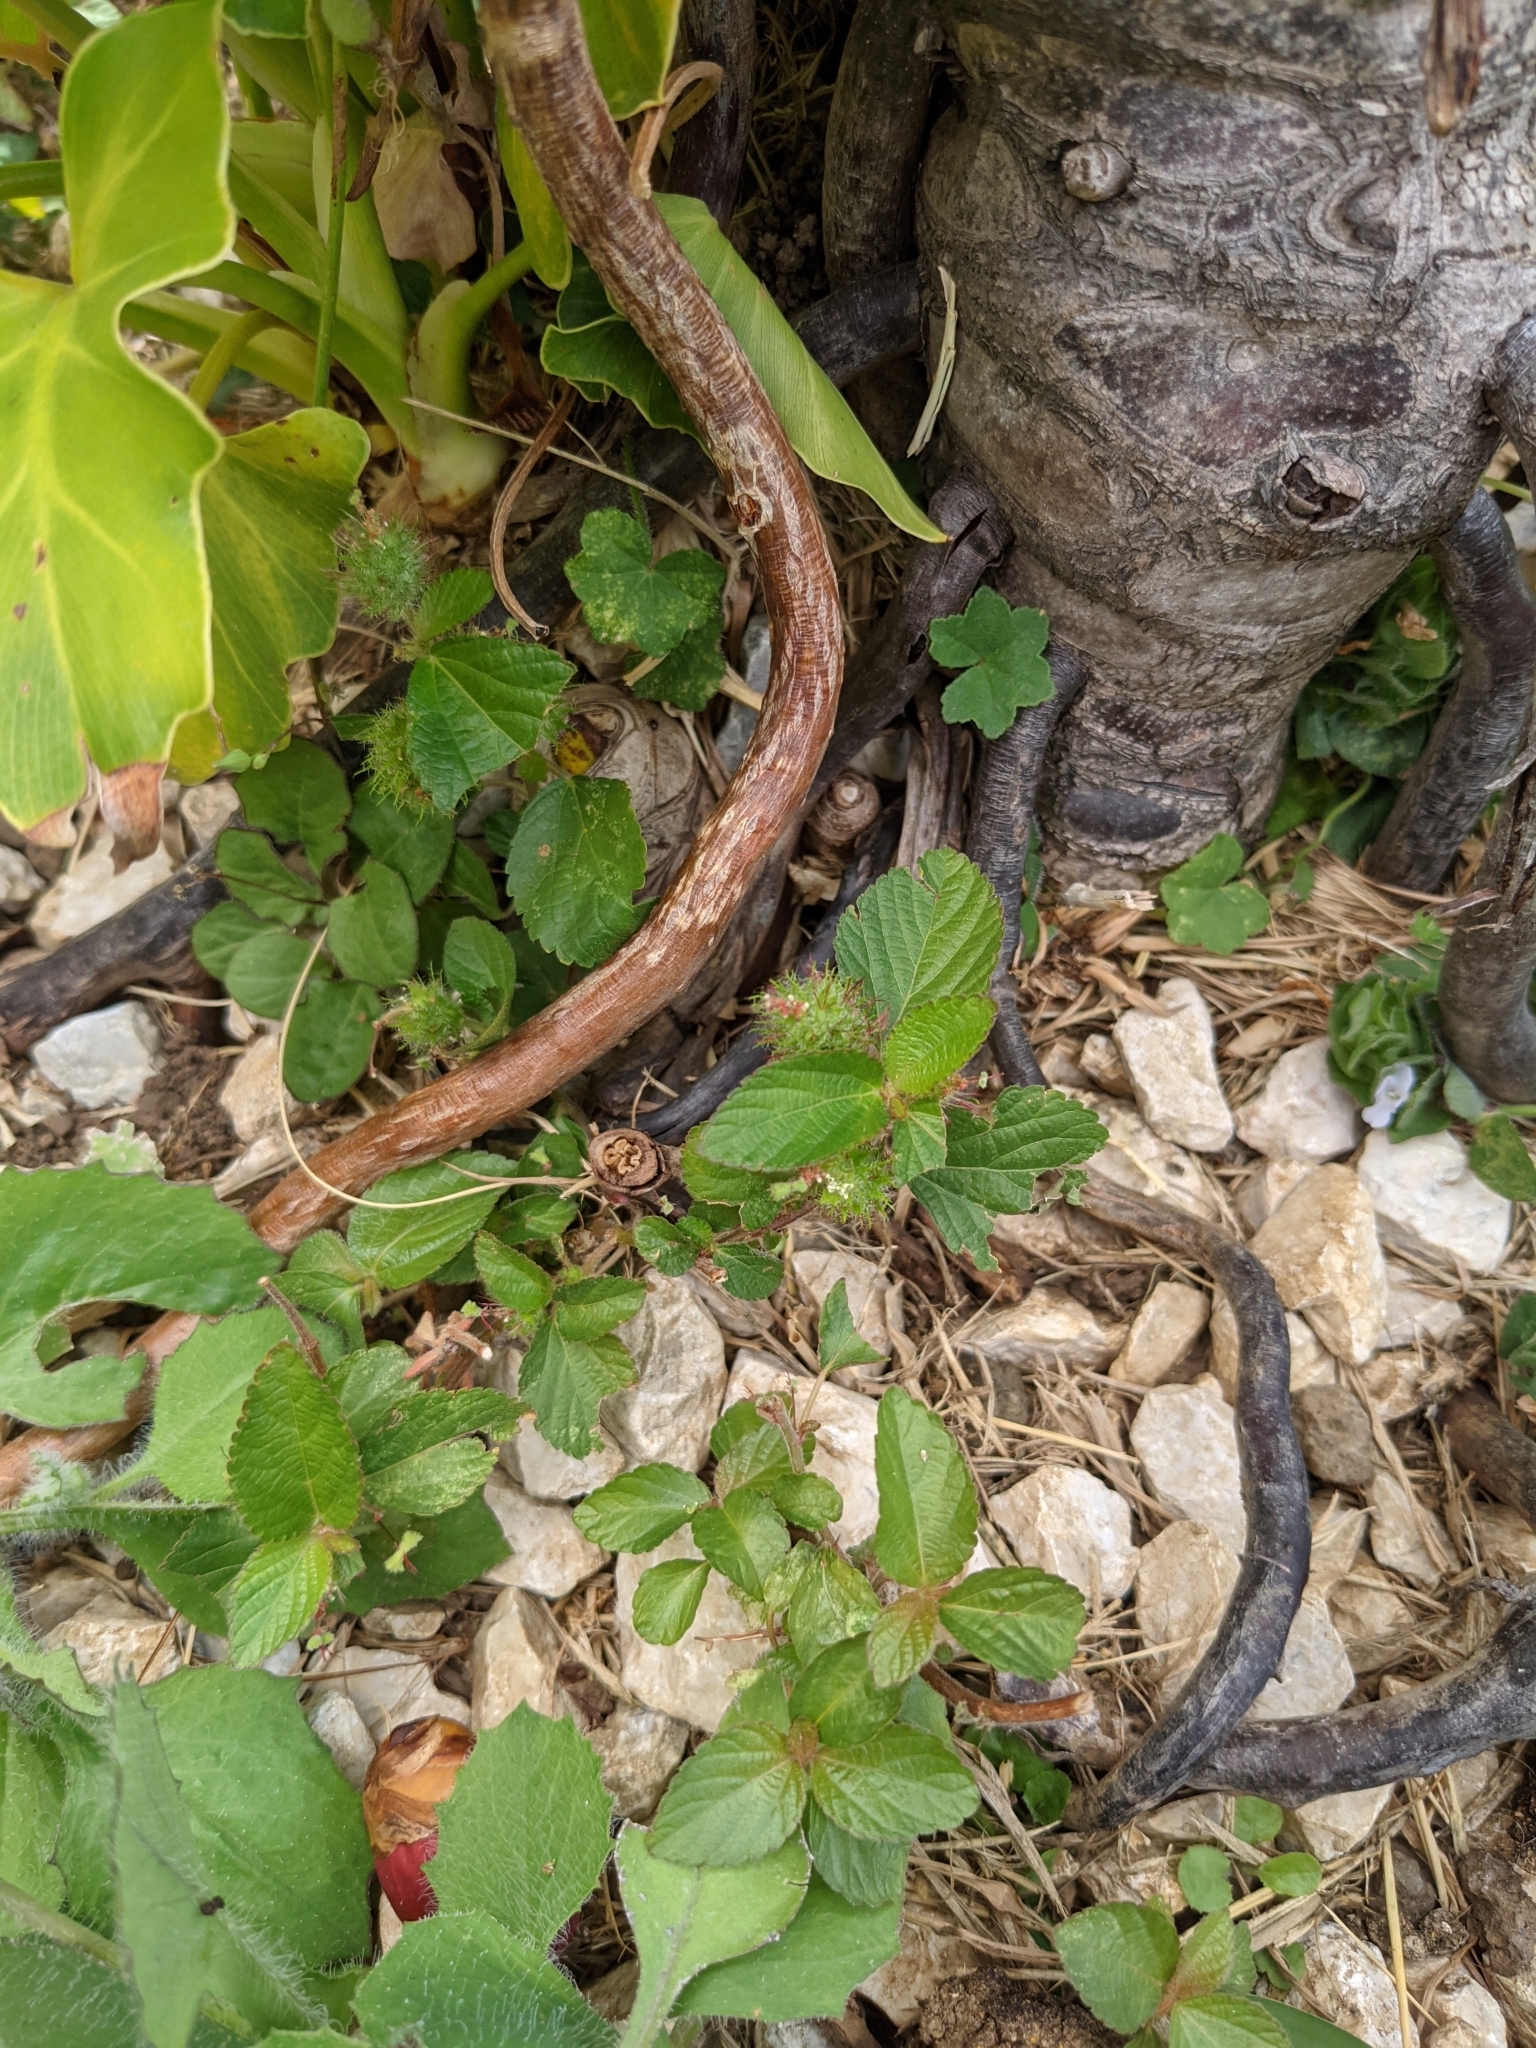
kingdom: Plantae
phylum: Tracheophyta
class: Magnoliopsida
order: Malpighiales
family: Euphorbiaceae
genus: Acalypha
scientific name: Acalypha arvensis
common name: Field copperleaf
